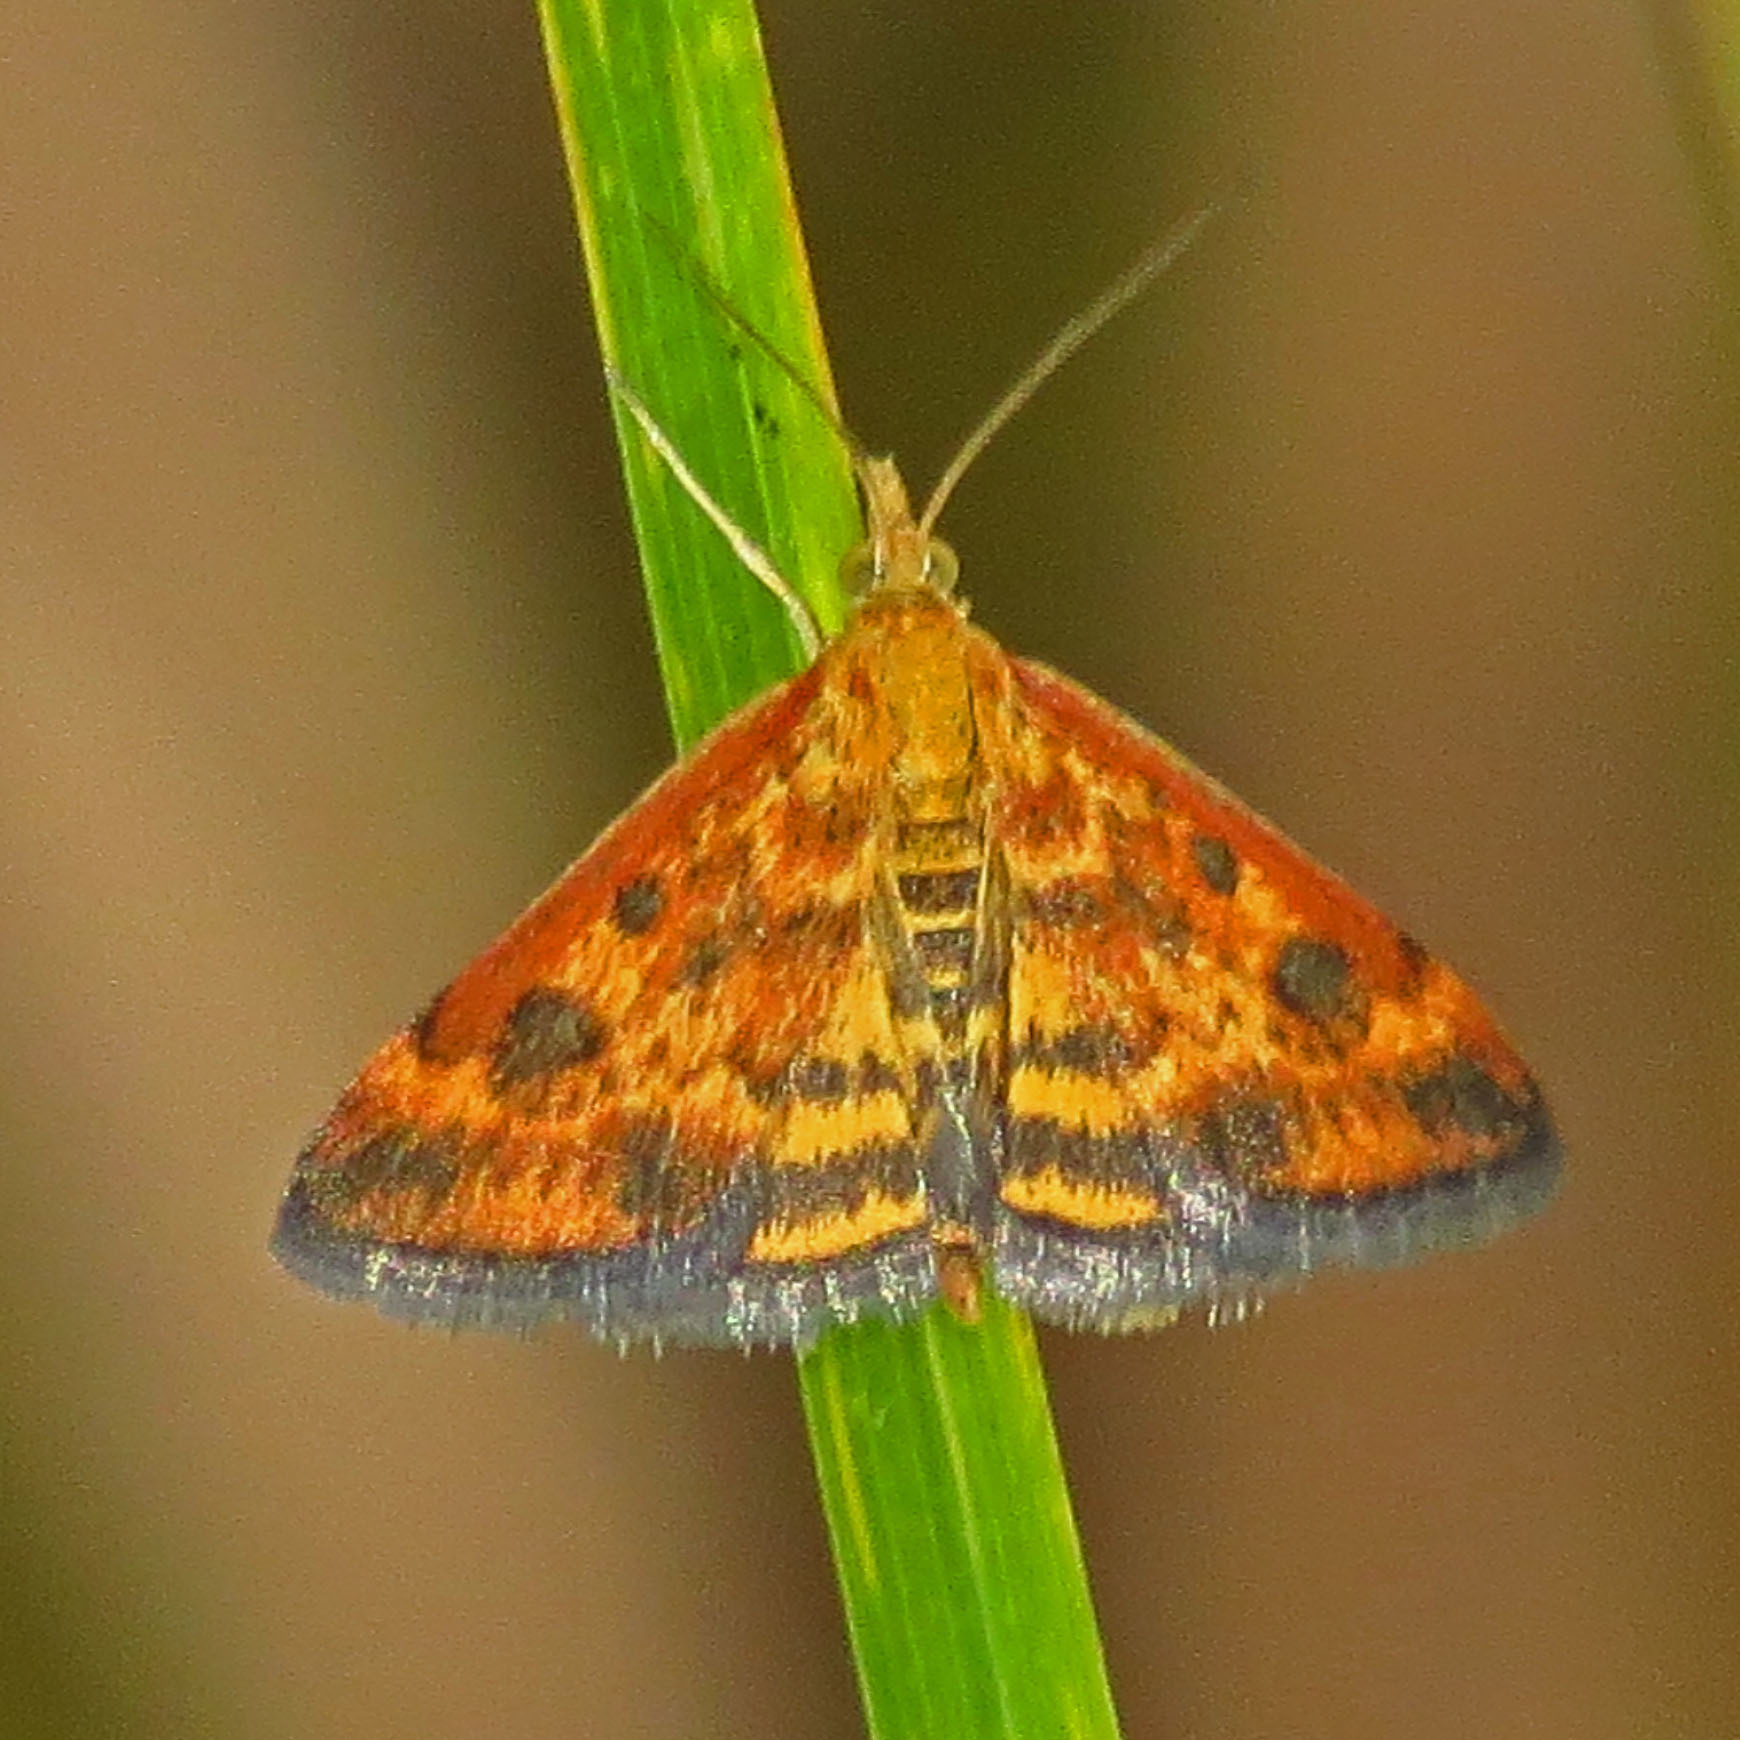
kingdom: Animalia
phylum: Arthropoda
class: Insecta
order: Lepidoptera
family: Crambidae
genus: Pyrausta
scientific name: Pyrausta subsequalis
